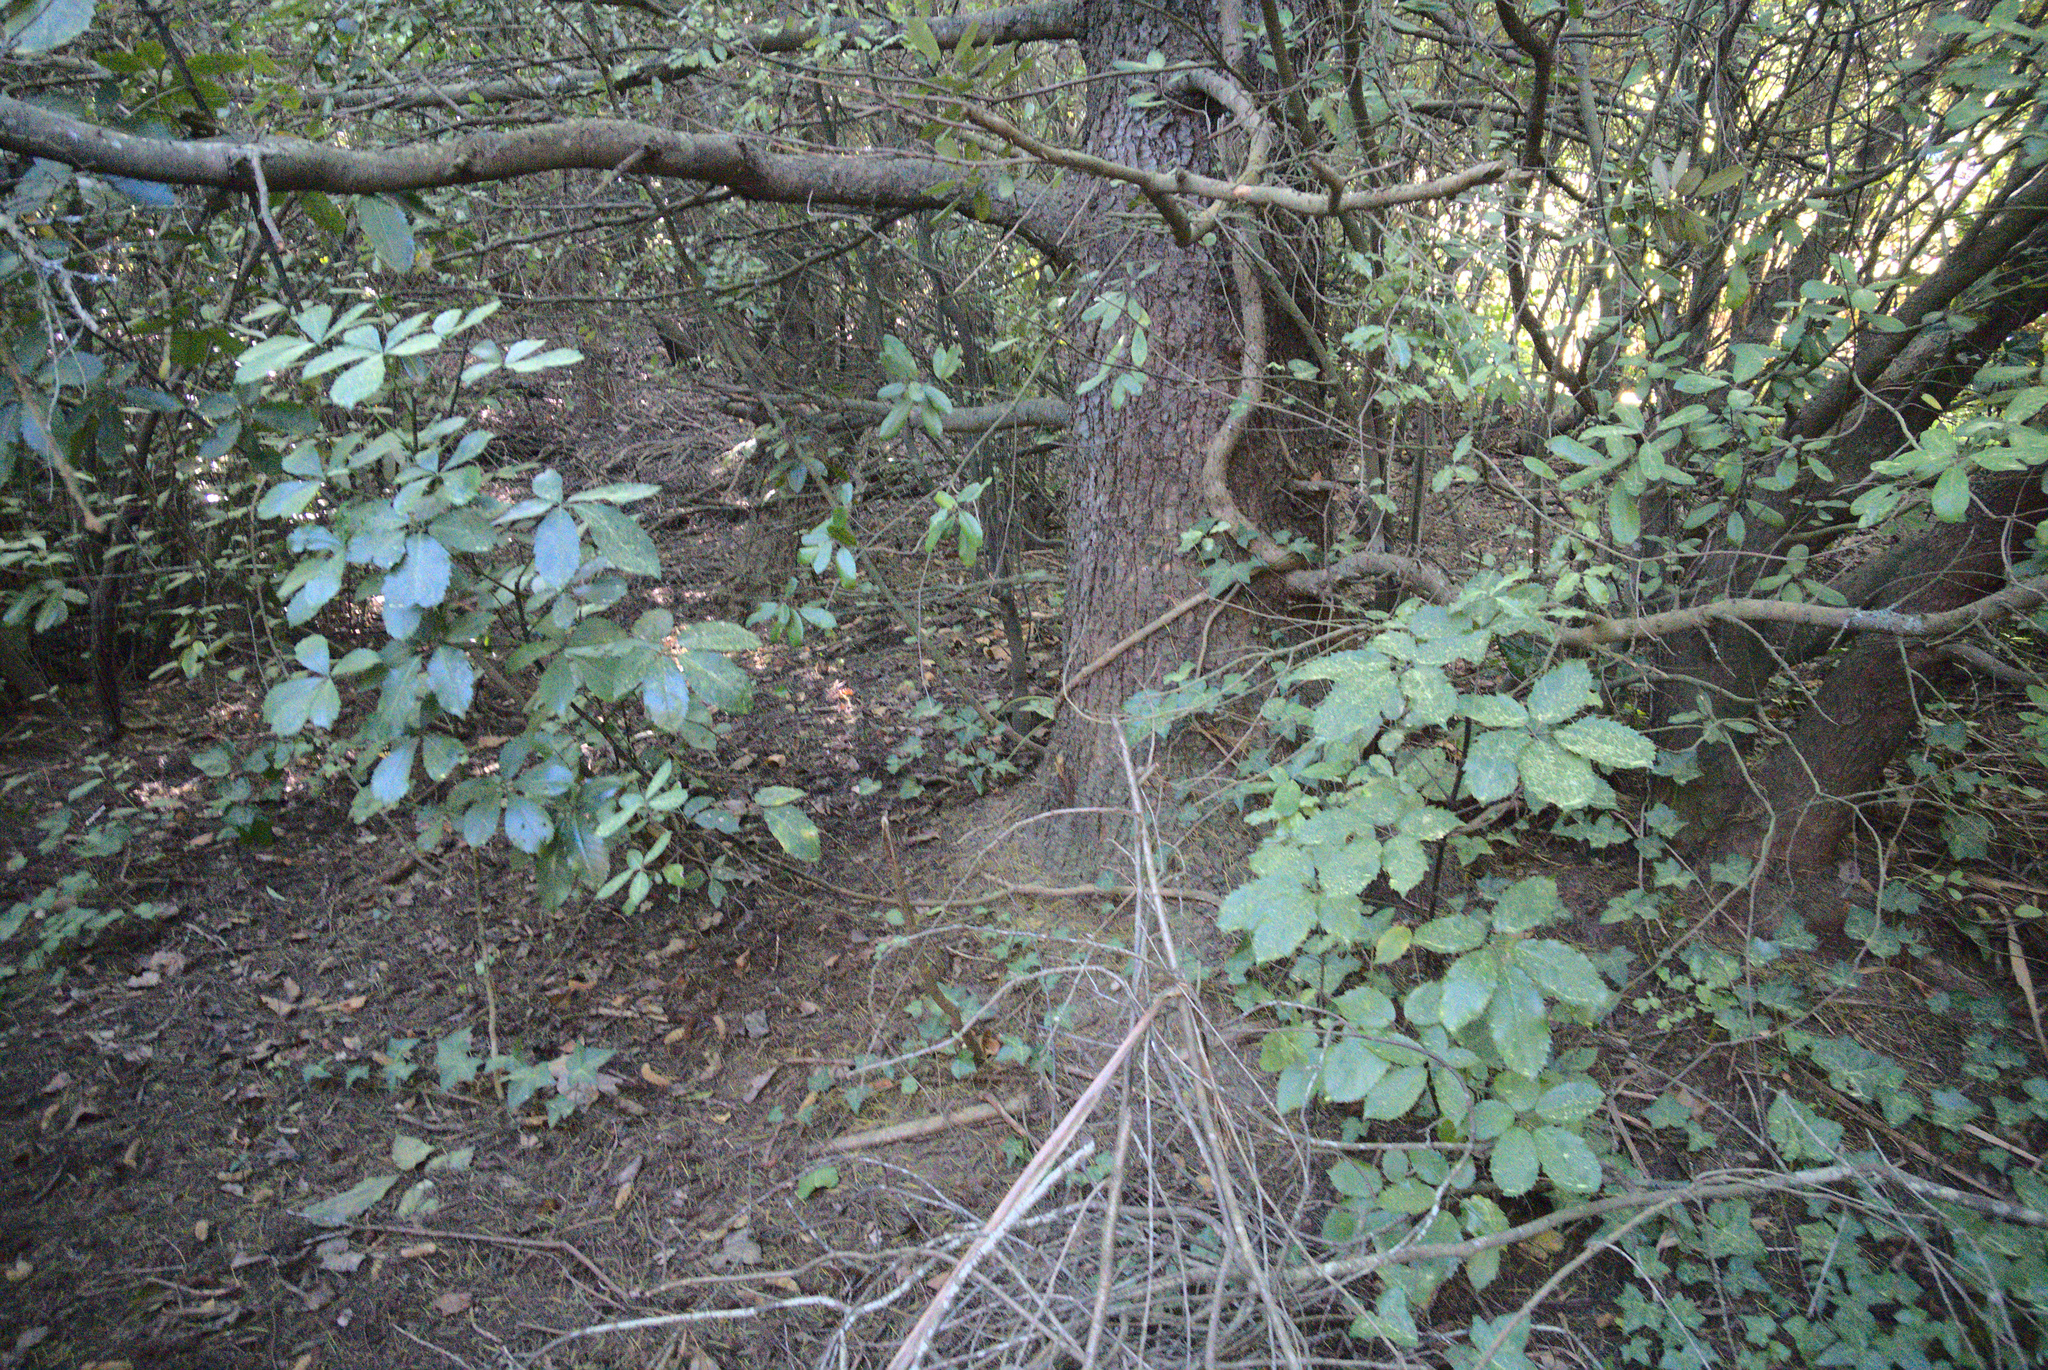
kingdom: Plantae
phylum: Tracheophyta
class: Magnoliopsida
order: Apiales
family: Araliaceae
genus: Neopanax
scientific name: Neopanax arboreus
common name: Five-fingers
